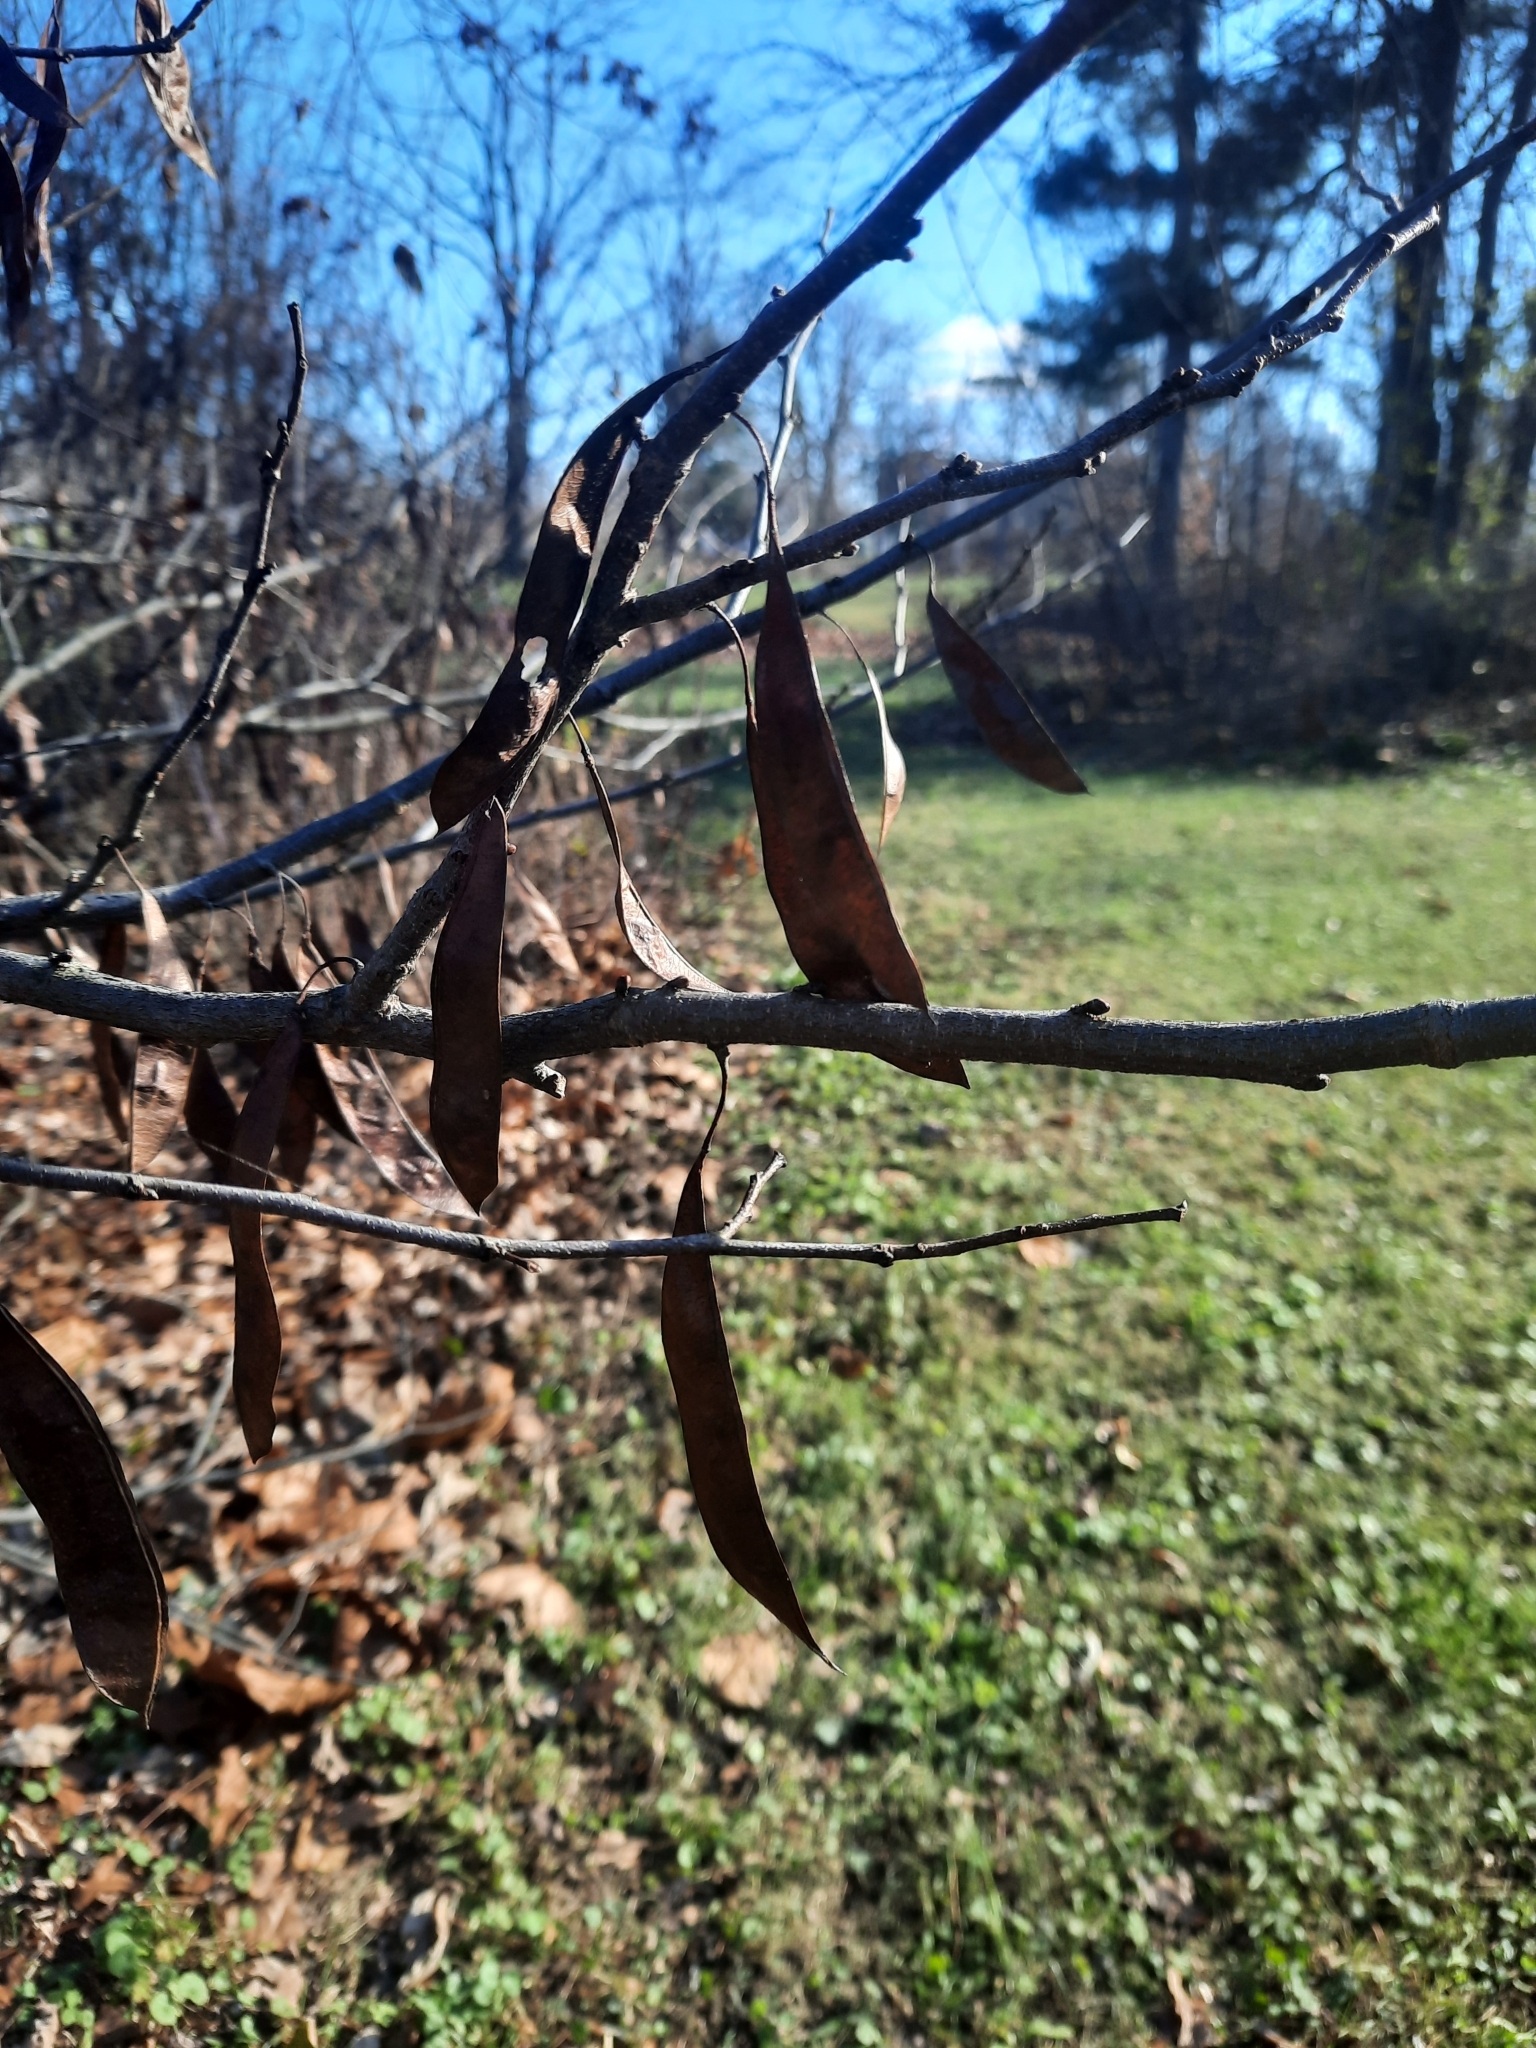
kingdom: Plantae
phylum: Tracheophyta
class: Magnoliopsida
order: Fabales
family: Fabaceae
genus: Robinia
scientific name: Robinia pseudoacacia
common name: Black locust
